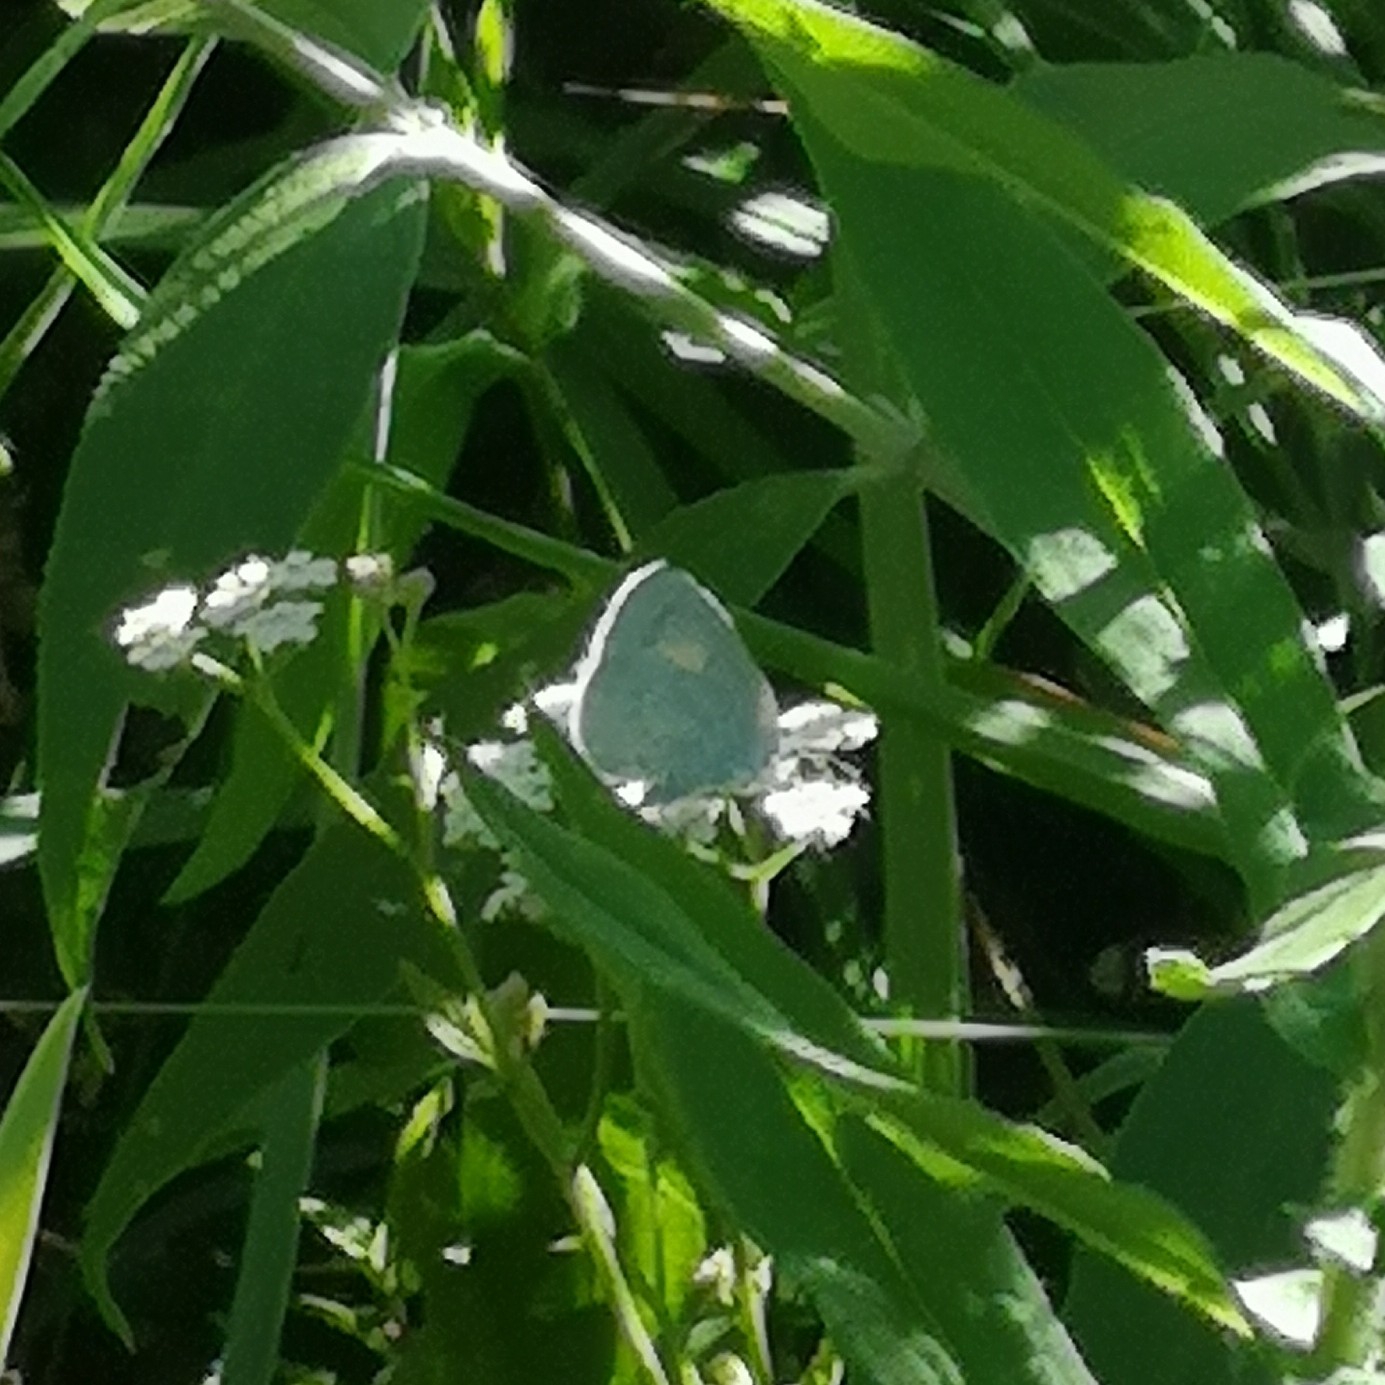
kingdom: Animalia
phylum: Arthropoda
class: Insecta
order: Lepidoptera
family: Lycaenidae
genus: Celastrina
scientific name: Celastrina argiolus
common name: Holly blue
